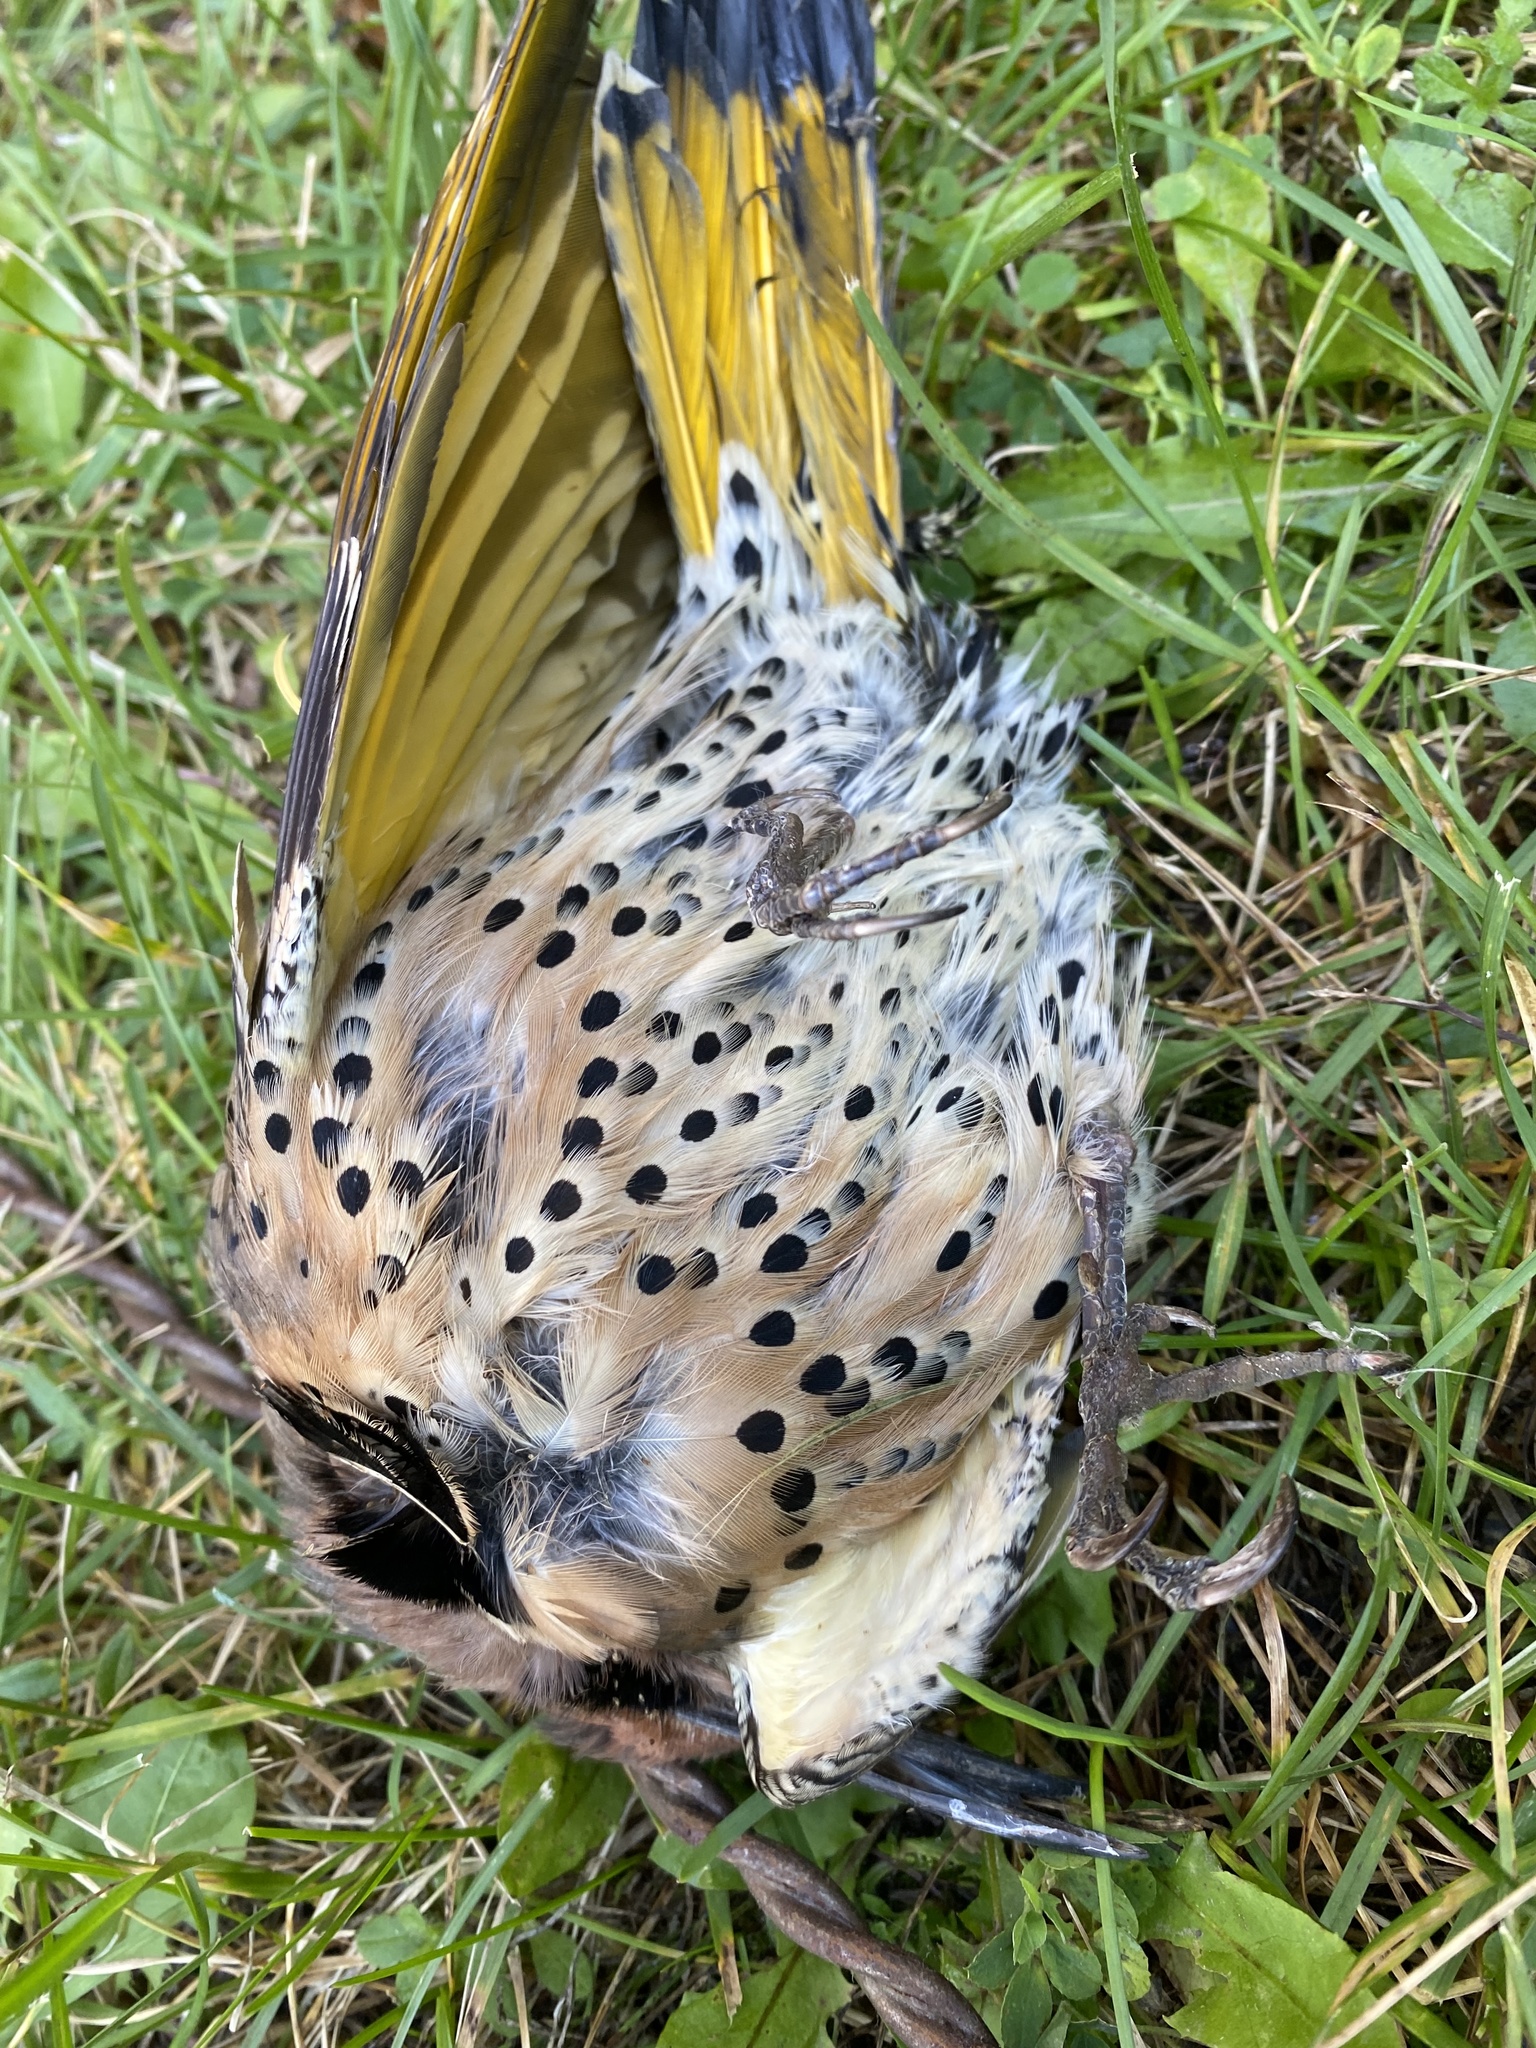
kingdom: Animalia
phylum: Chordata
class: Aves
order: Piciformes
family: Picidae
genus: Colaptes
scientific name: Colaptes auratus
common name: Northern flicker
